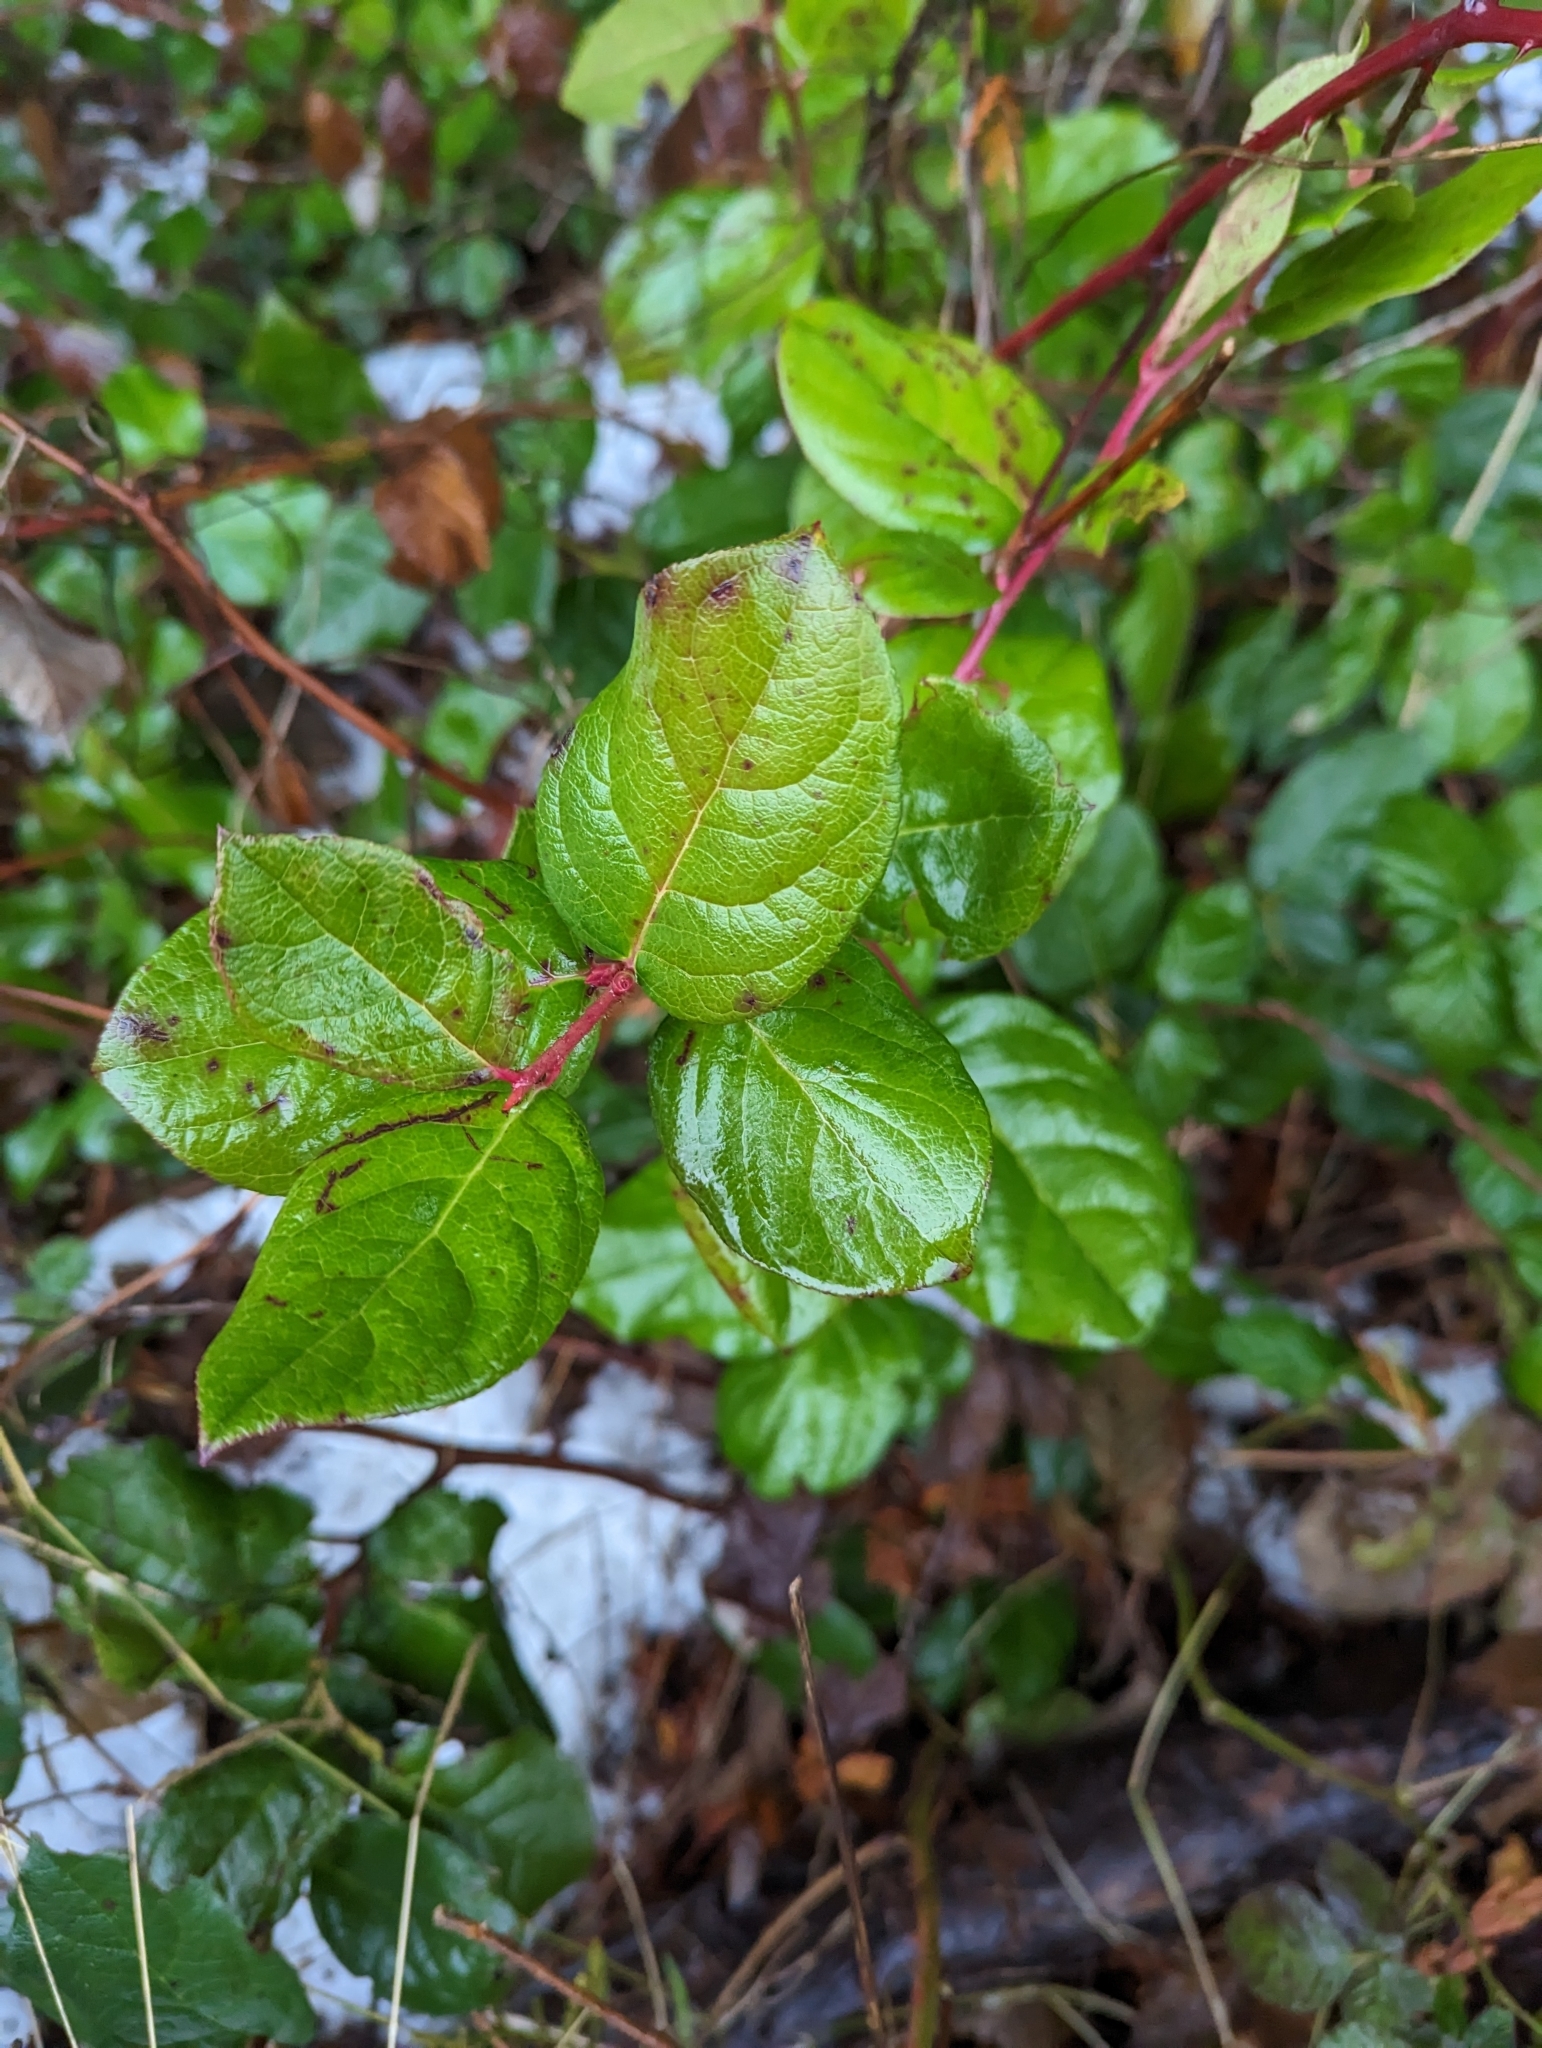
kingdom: Plantae
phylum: Tracheophyta
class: Magnoliopsida
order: Ericales
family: Ericaceae
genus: Gaultheria
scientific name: Gaultheria shallon
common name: Shallon
